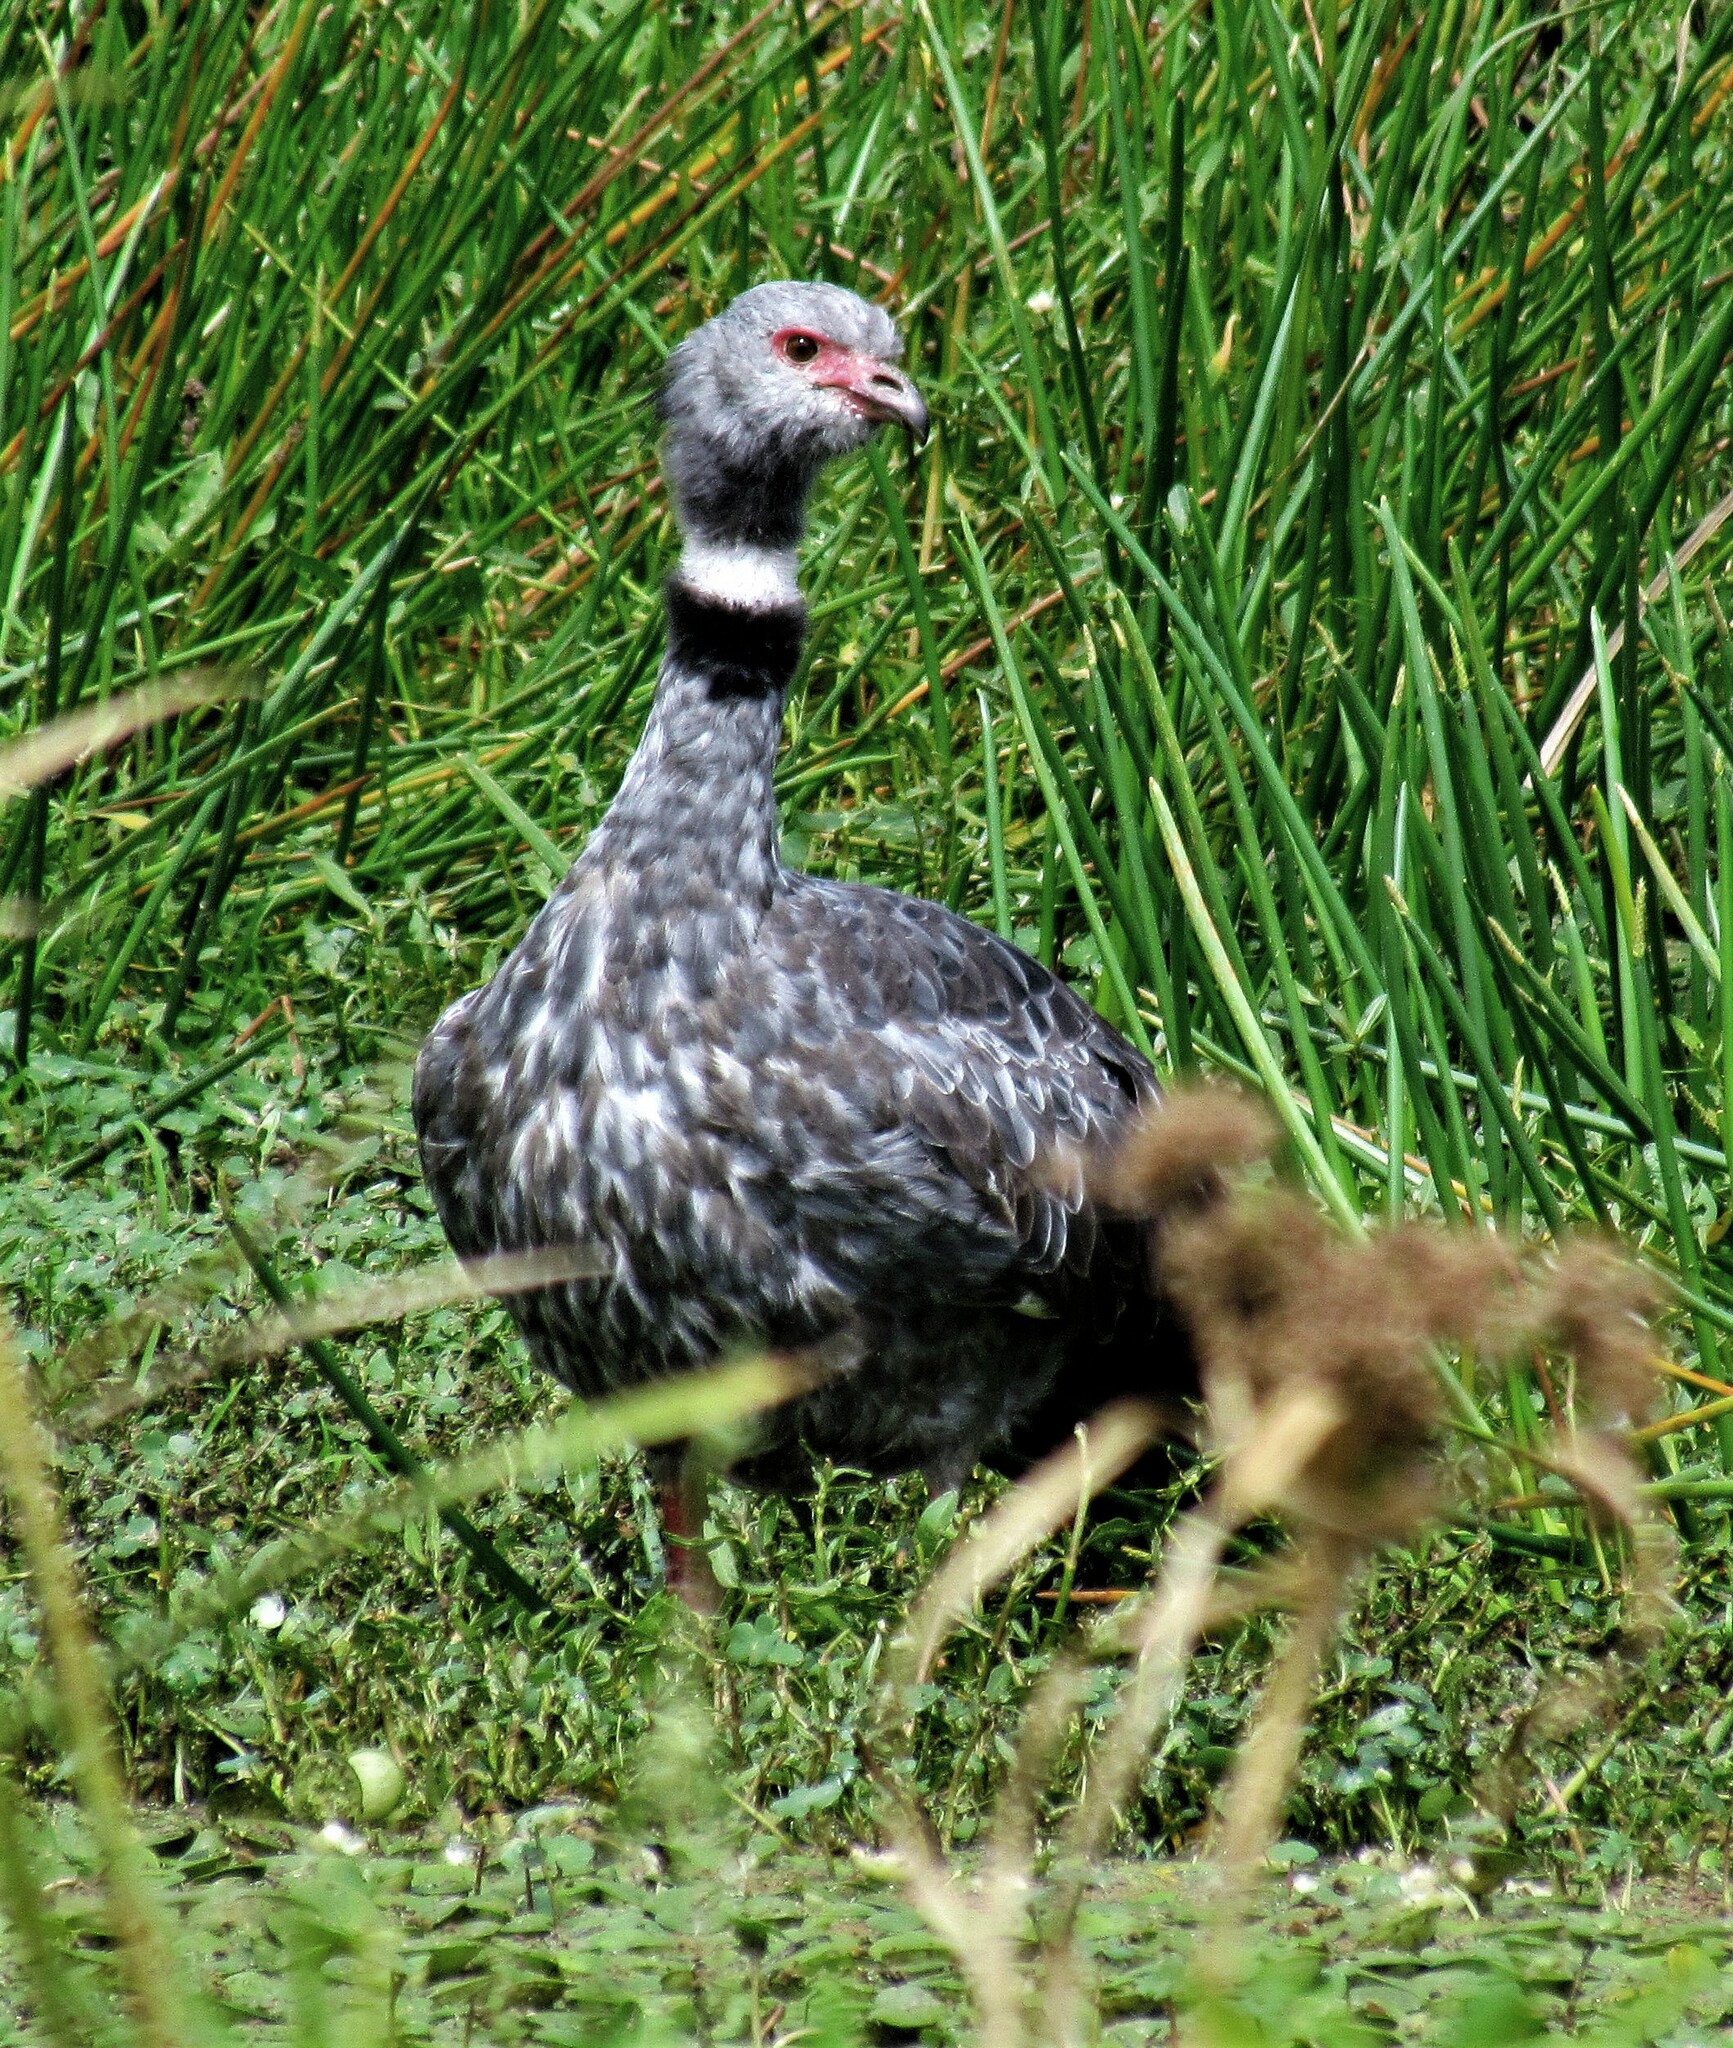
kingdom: Animalia
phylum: Chordata
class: Aves
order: Anseriformes
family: Anhimidae
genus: Chauna
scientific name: Chauna torquata
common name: Southern screamer
